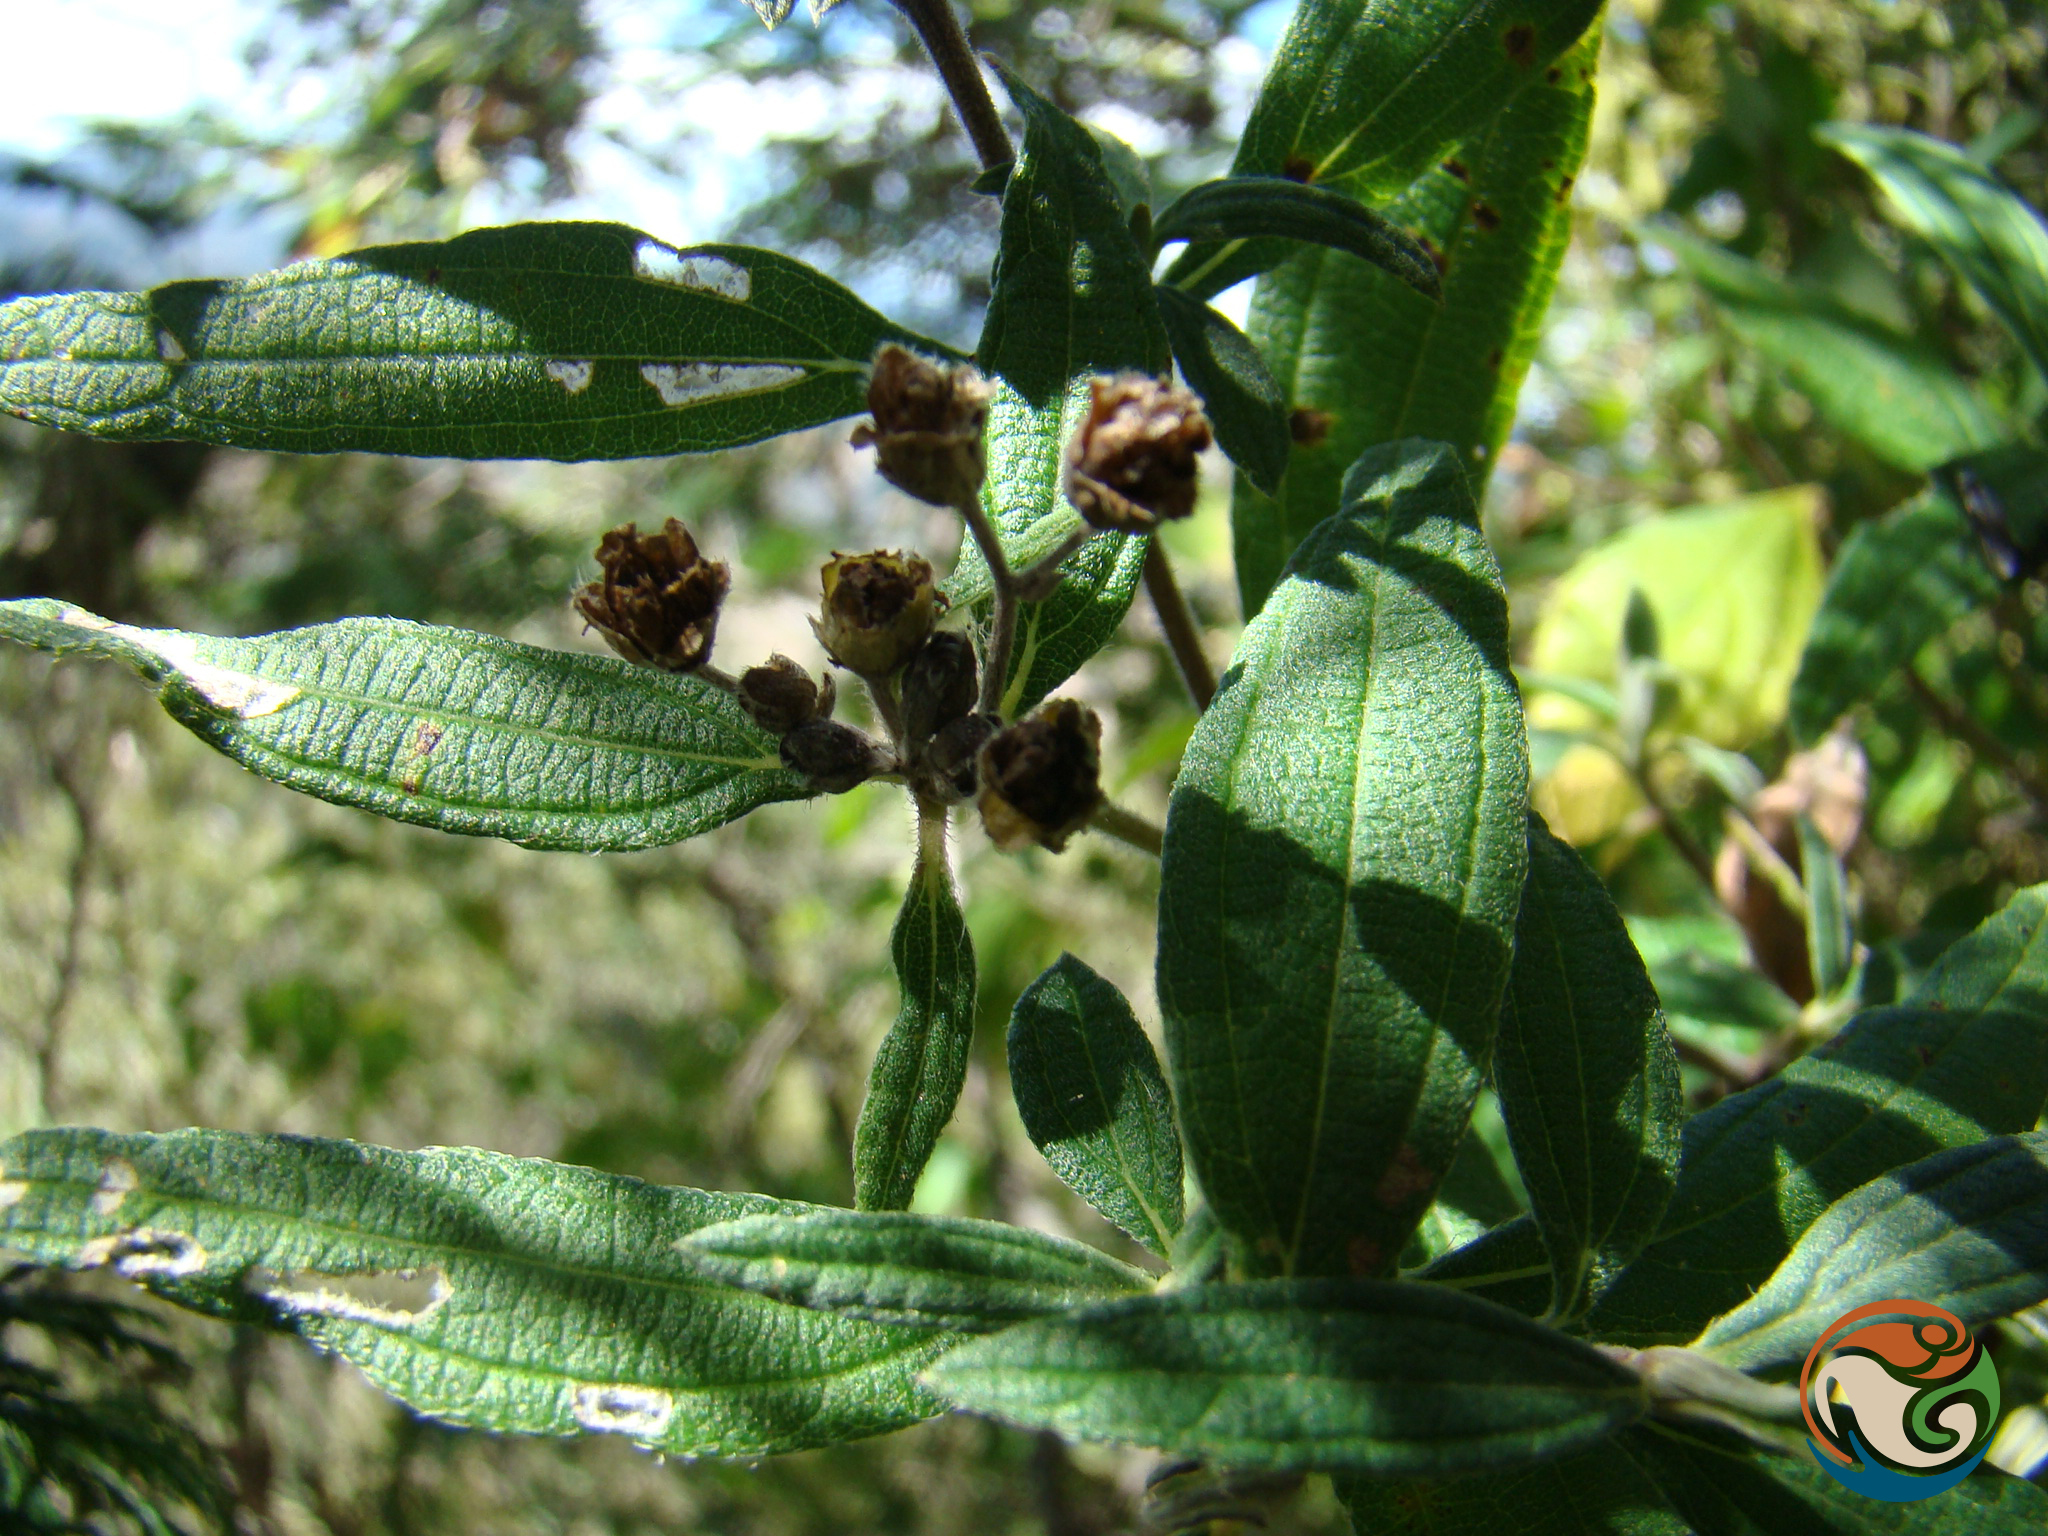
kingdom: Plantae
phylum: Tracheophyta
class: Magnoliopsida
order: Asterales
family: Asteraceae
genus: Perymenium
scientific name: Perymenium discolor
